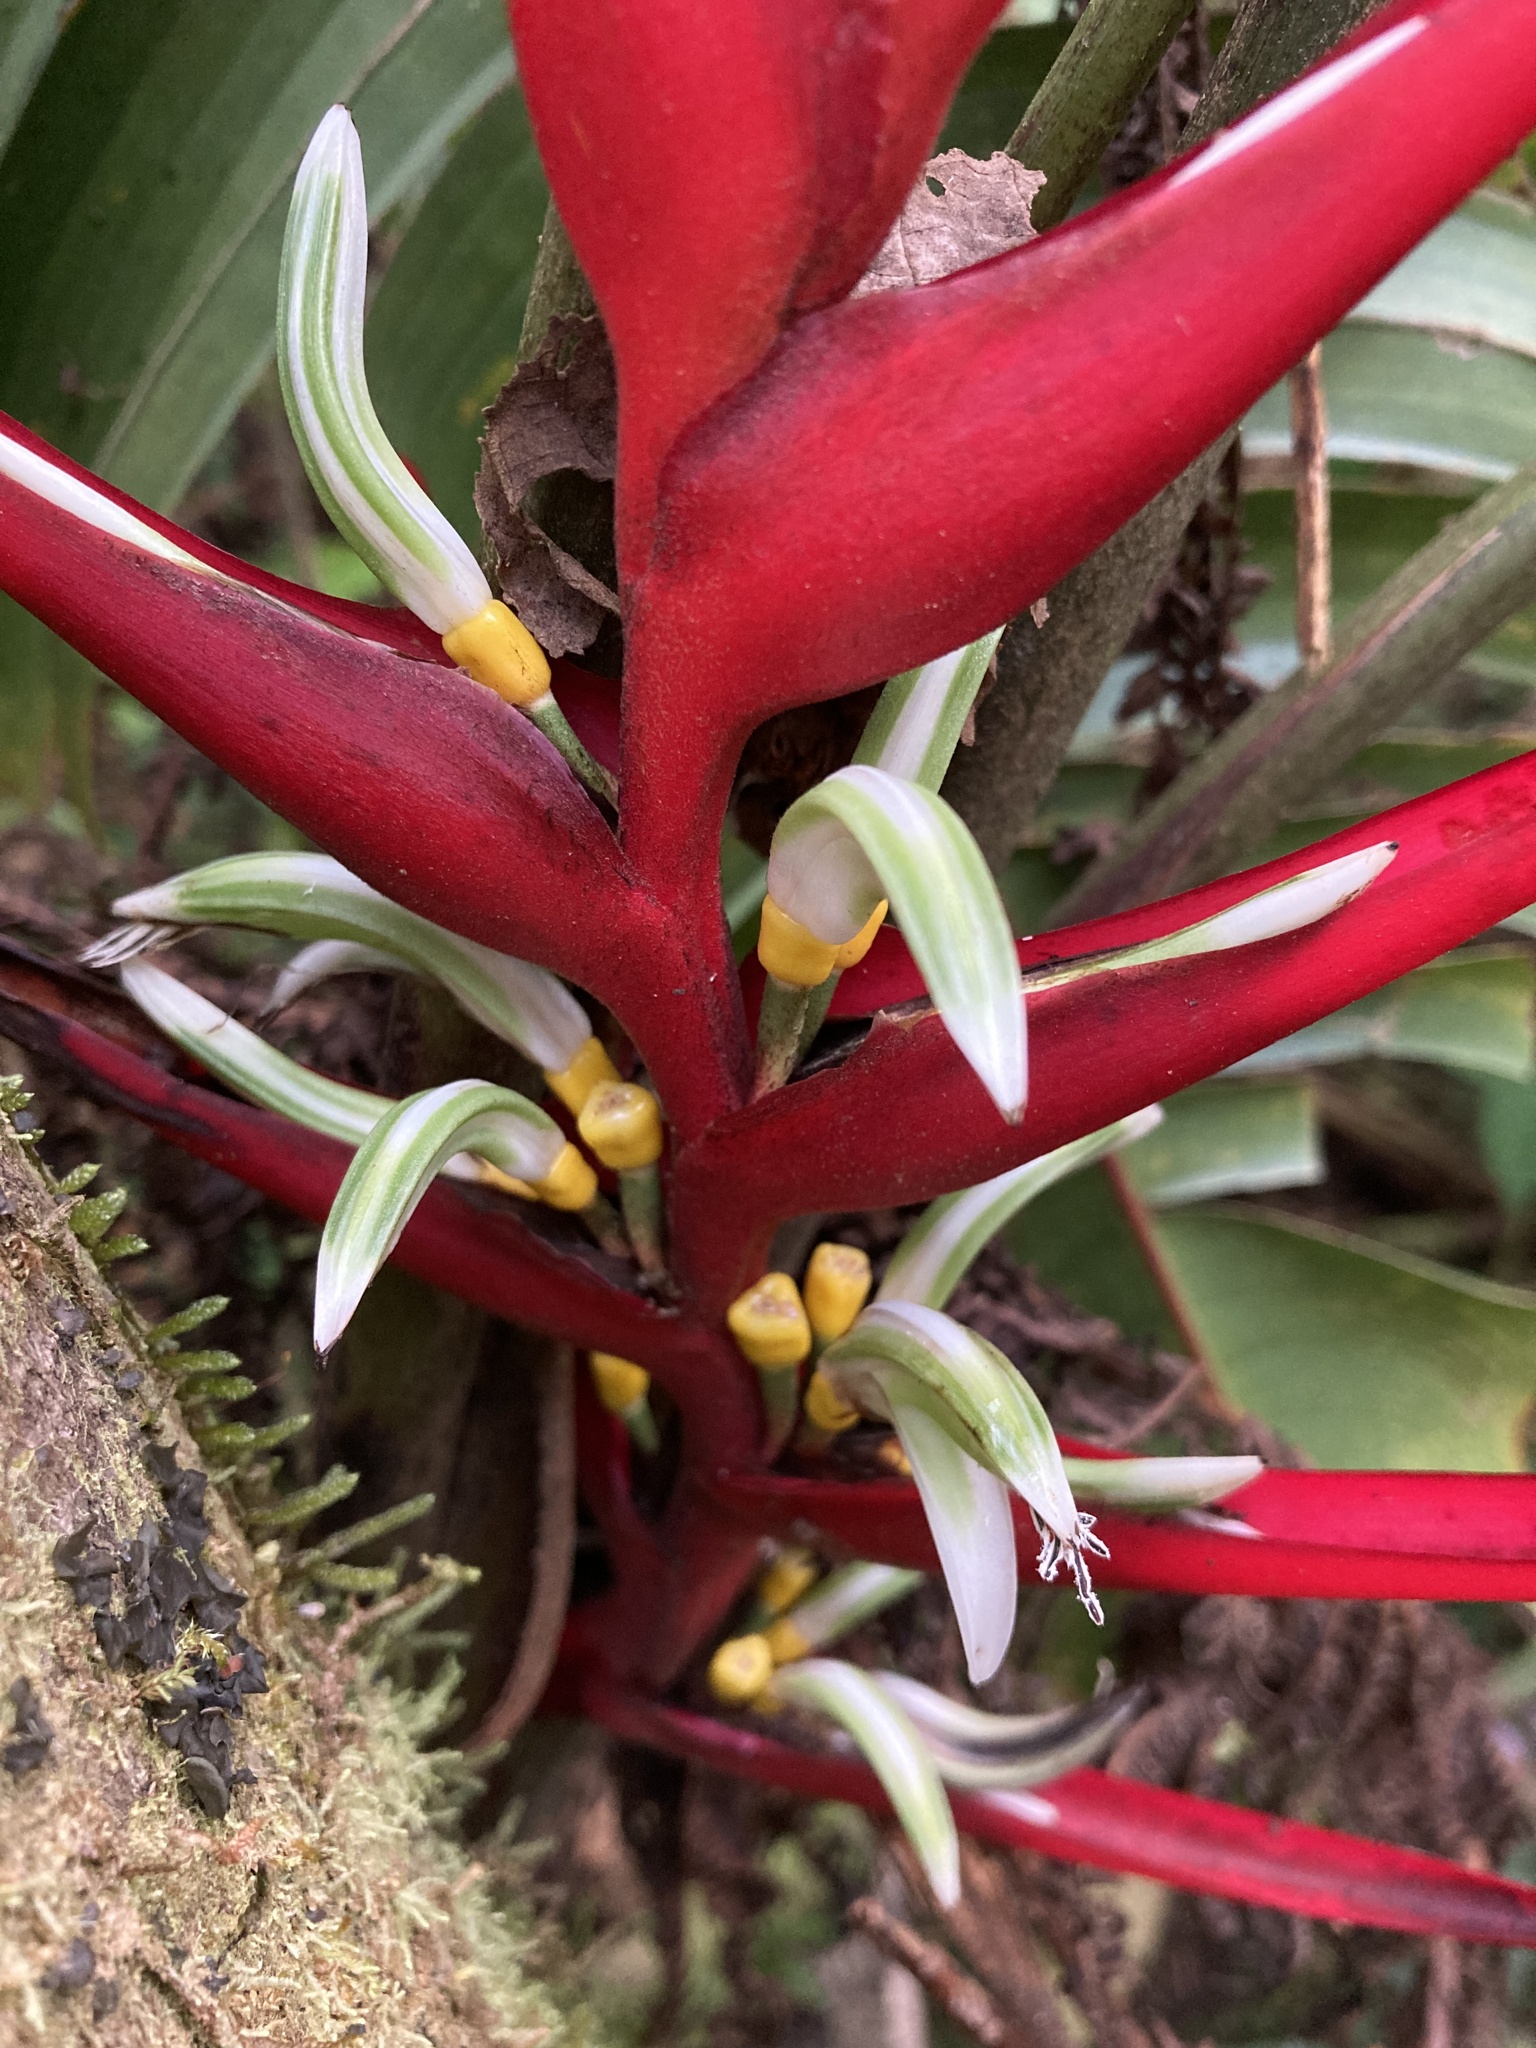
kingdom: Plantae
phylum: Tracheophyta
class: Liliopsida
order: Zingiberales
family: Heliconiaceae
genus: Heliconia
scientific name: Heliconia burleana
